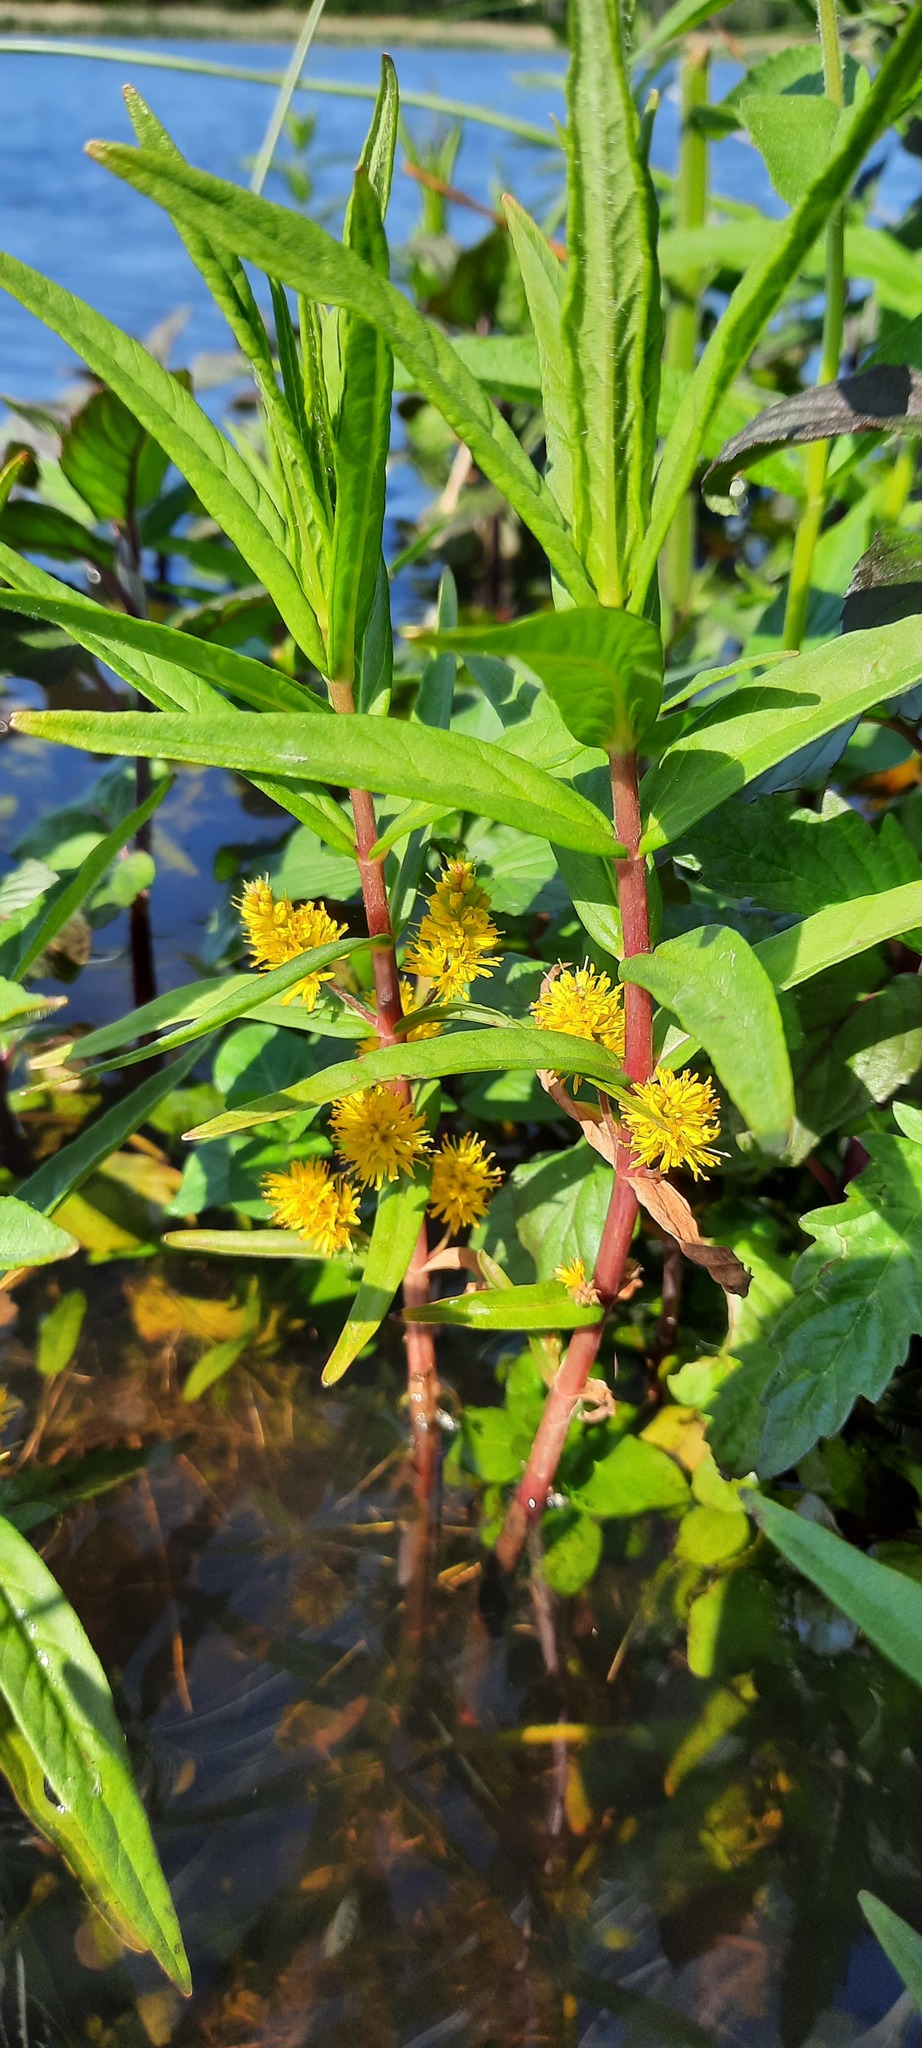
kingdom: Plantae
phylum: Tracheophyta
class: Magnoliopsida
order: Ericales
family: Primulaceae
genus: Lysimachia
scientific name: Lysimachia thyrsiflora
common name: Tufted loosestrife
